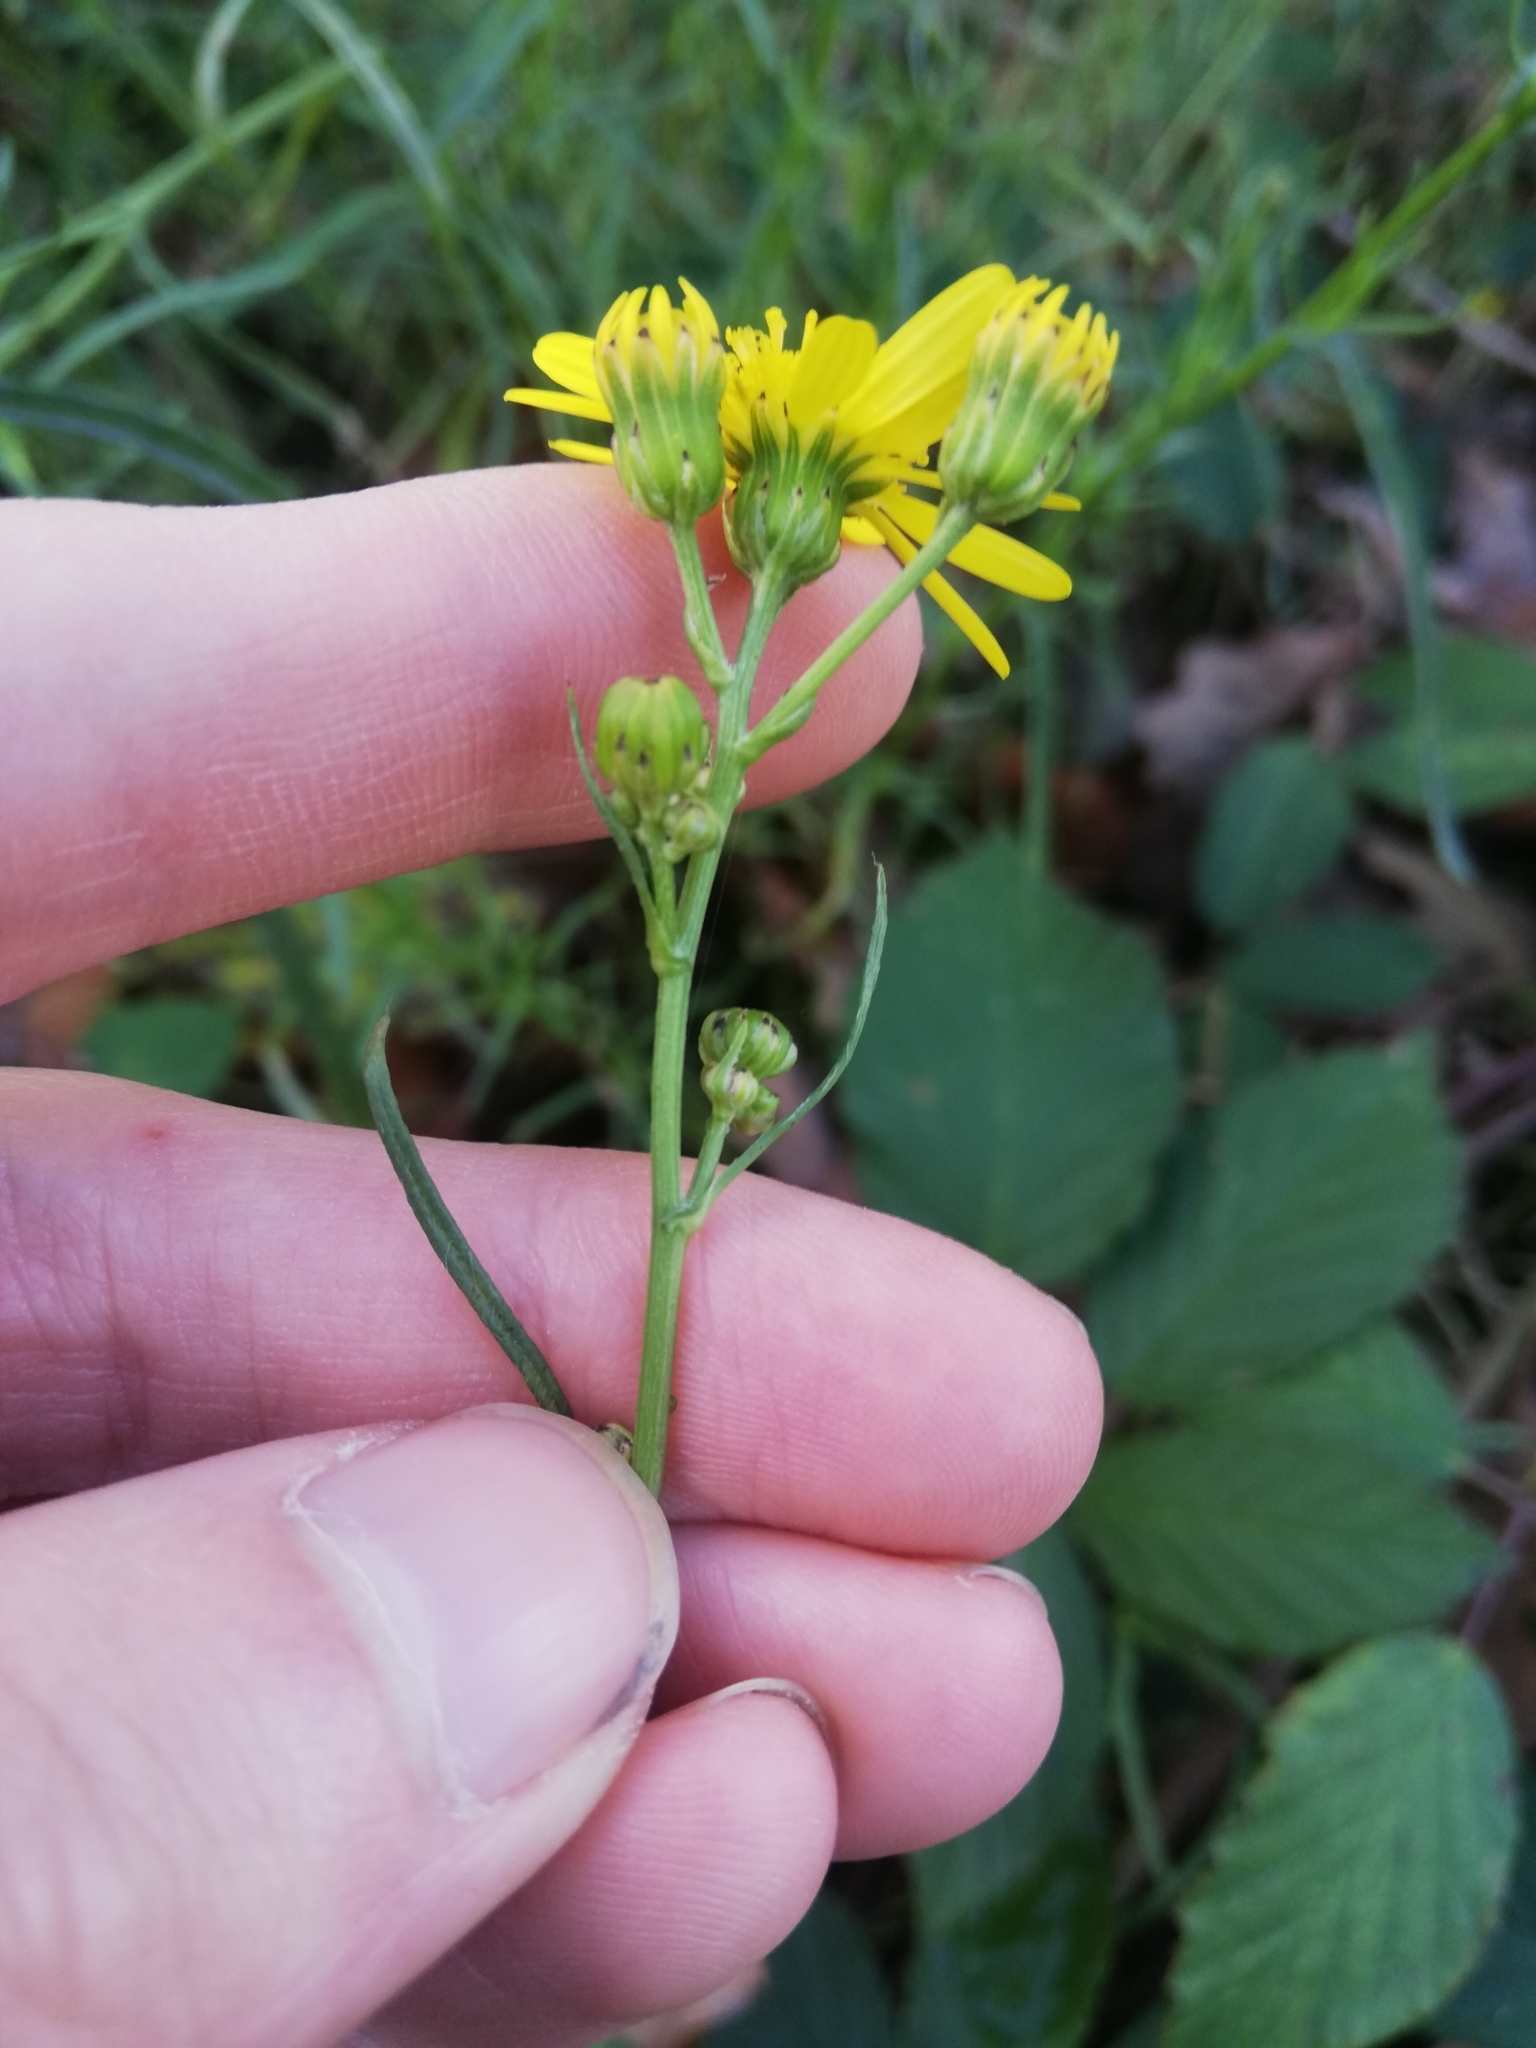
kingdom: Plantae
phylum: Tracheophyta
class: Magnoliopsida
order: Asterales
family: Asteraceae
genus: Senecio
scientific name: Senecio inaequidens
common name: Narrow-leaved ragwort
